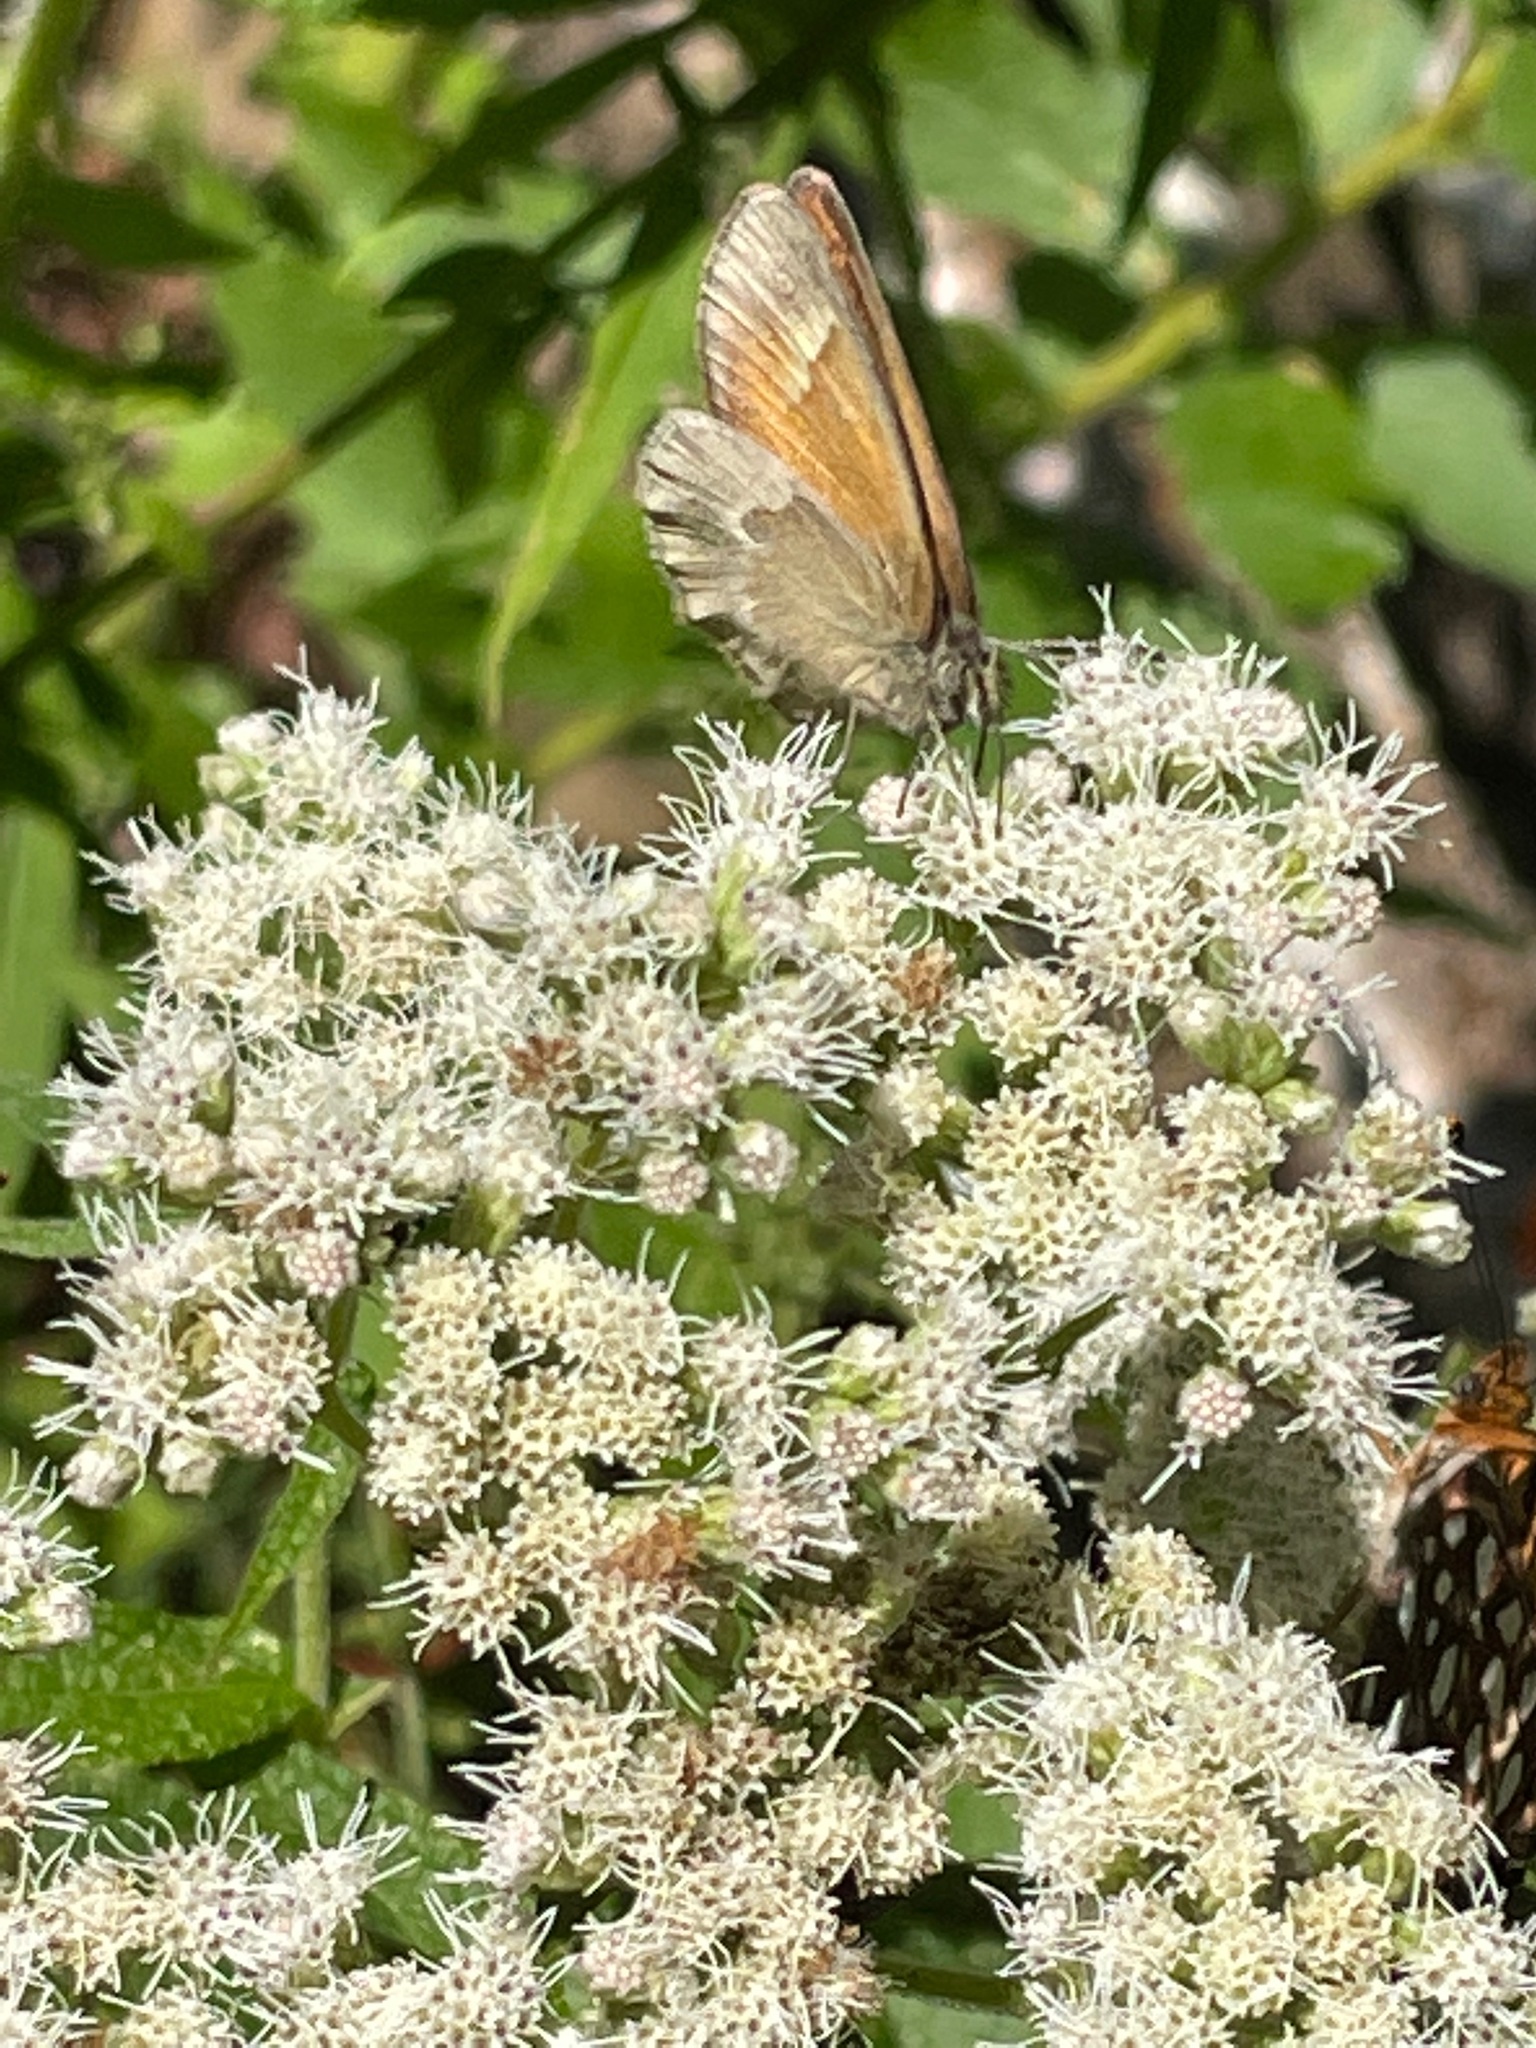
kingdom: Animalia
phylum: Arthropoda
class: Insecta
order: Lepidoptera
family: Nymphalidae
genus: Coenonympha
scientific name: Coenonympha california
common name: Common ringlet
